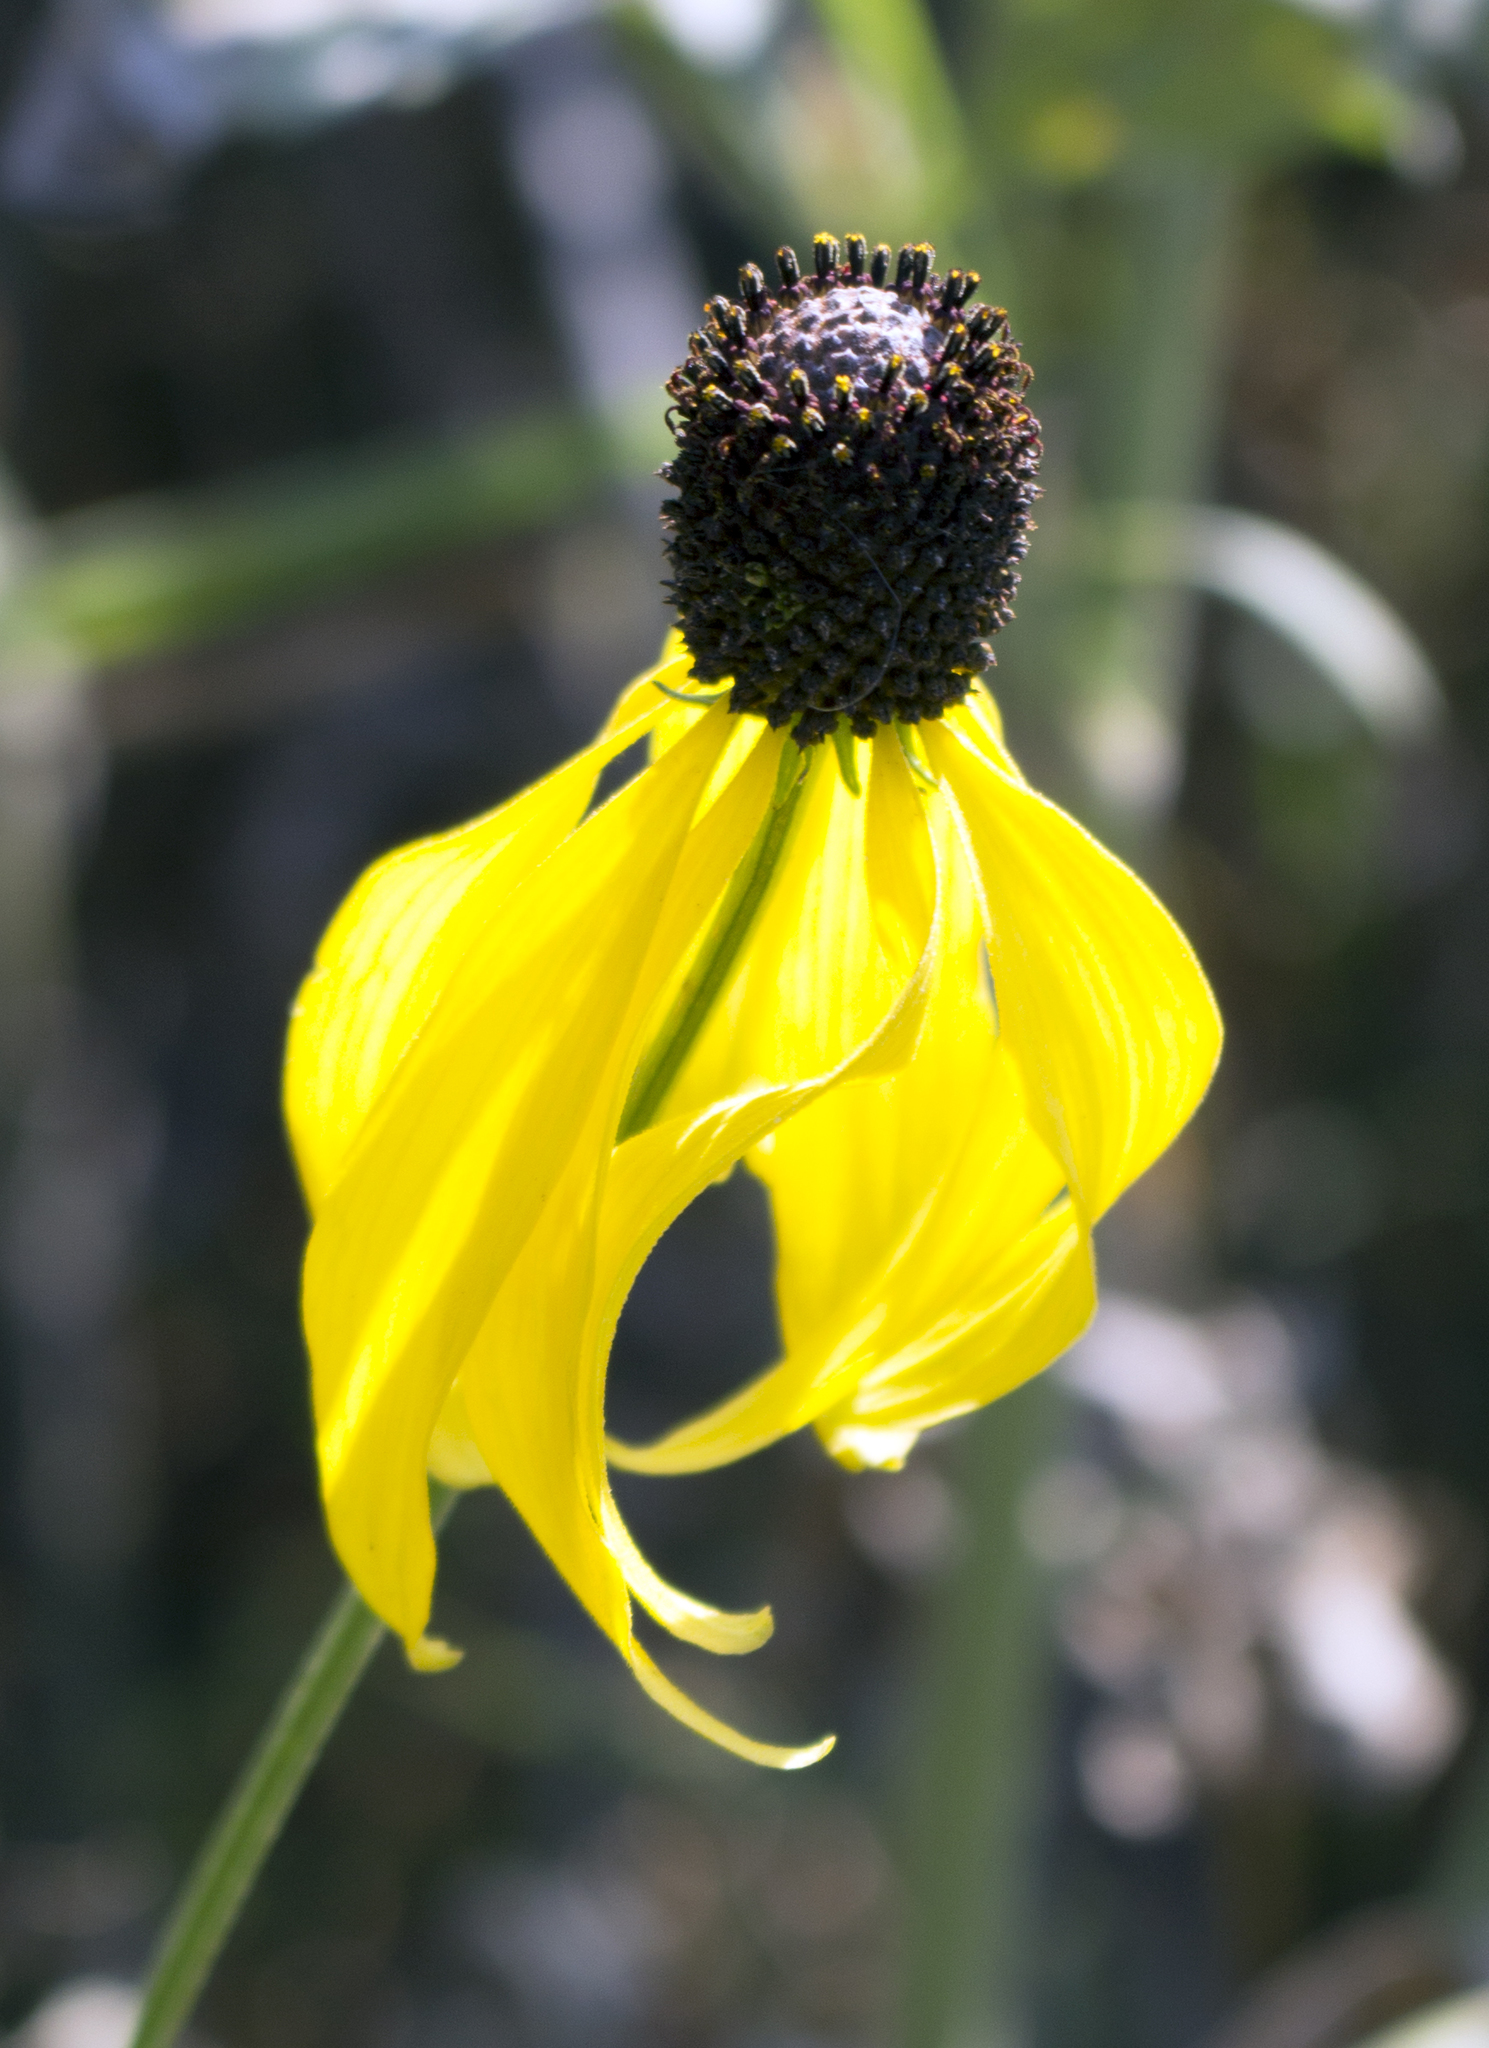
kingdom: Plantae
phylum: Tracheophyta
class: Magnoliopsida
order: Asterales
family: Asteraceae
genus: Ratibida
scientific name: Ratibida pinnata
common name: Drooping prairie-coneflower
